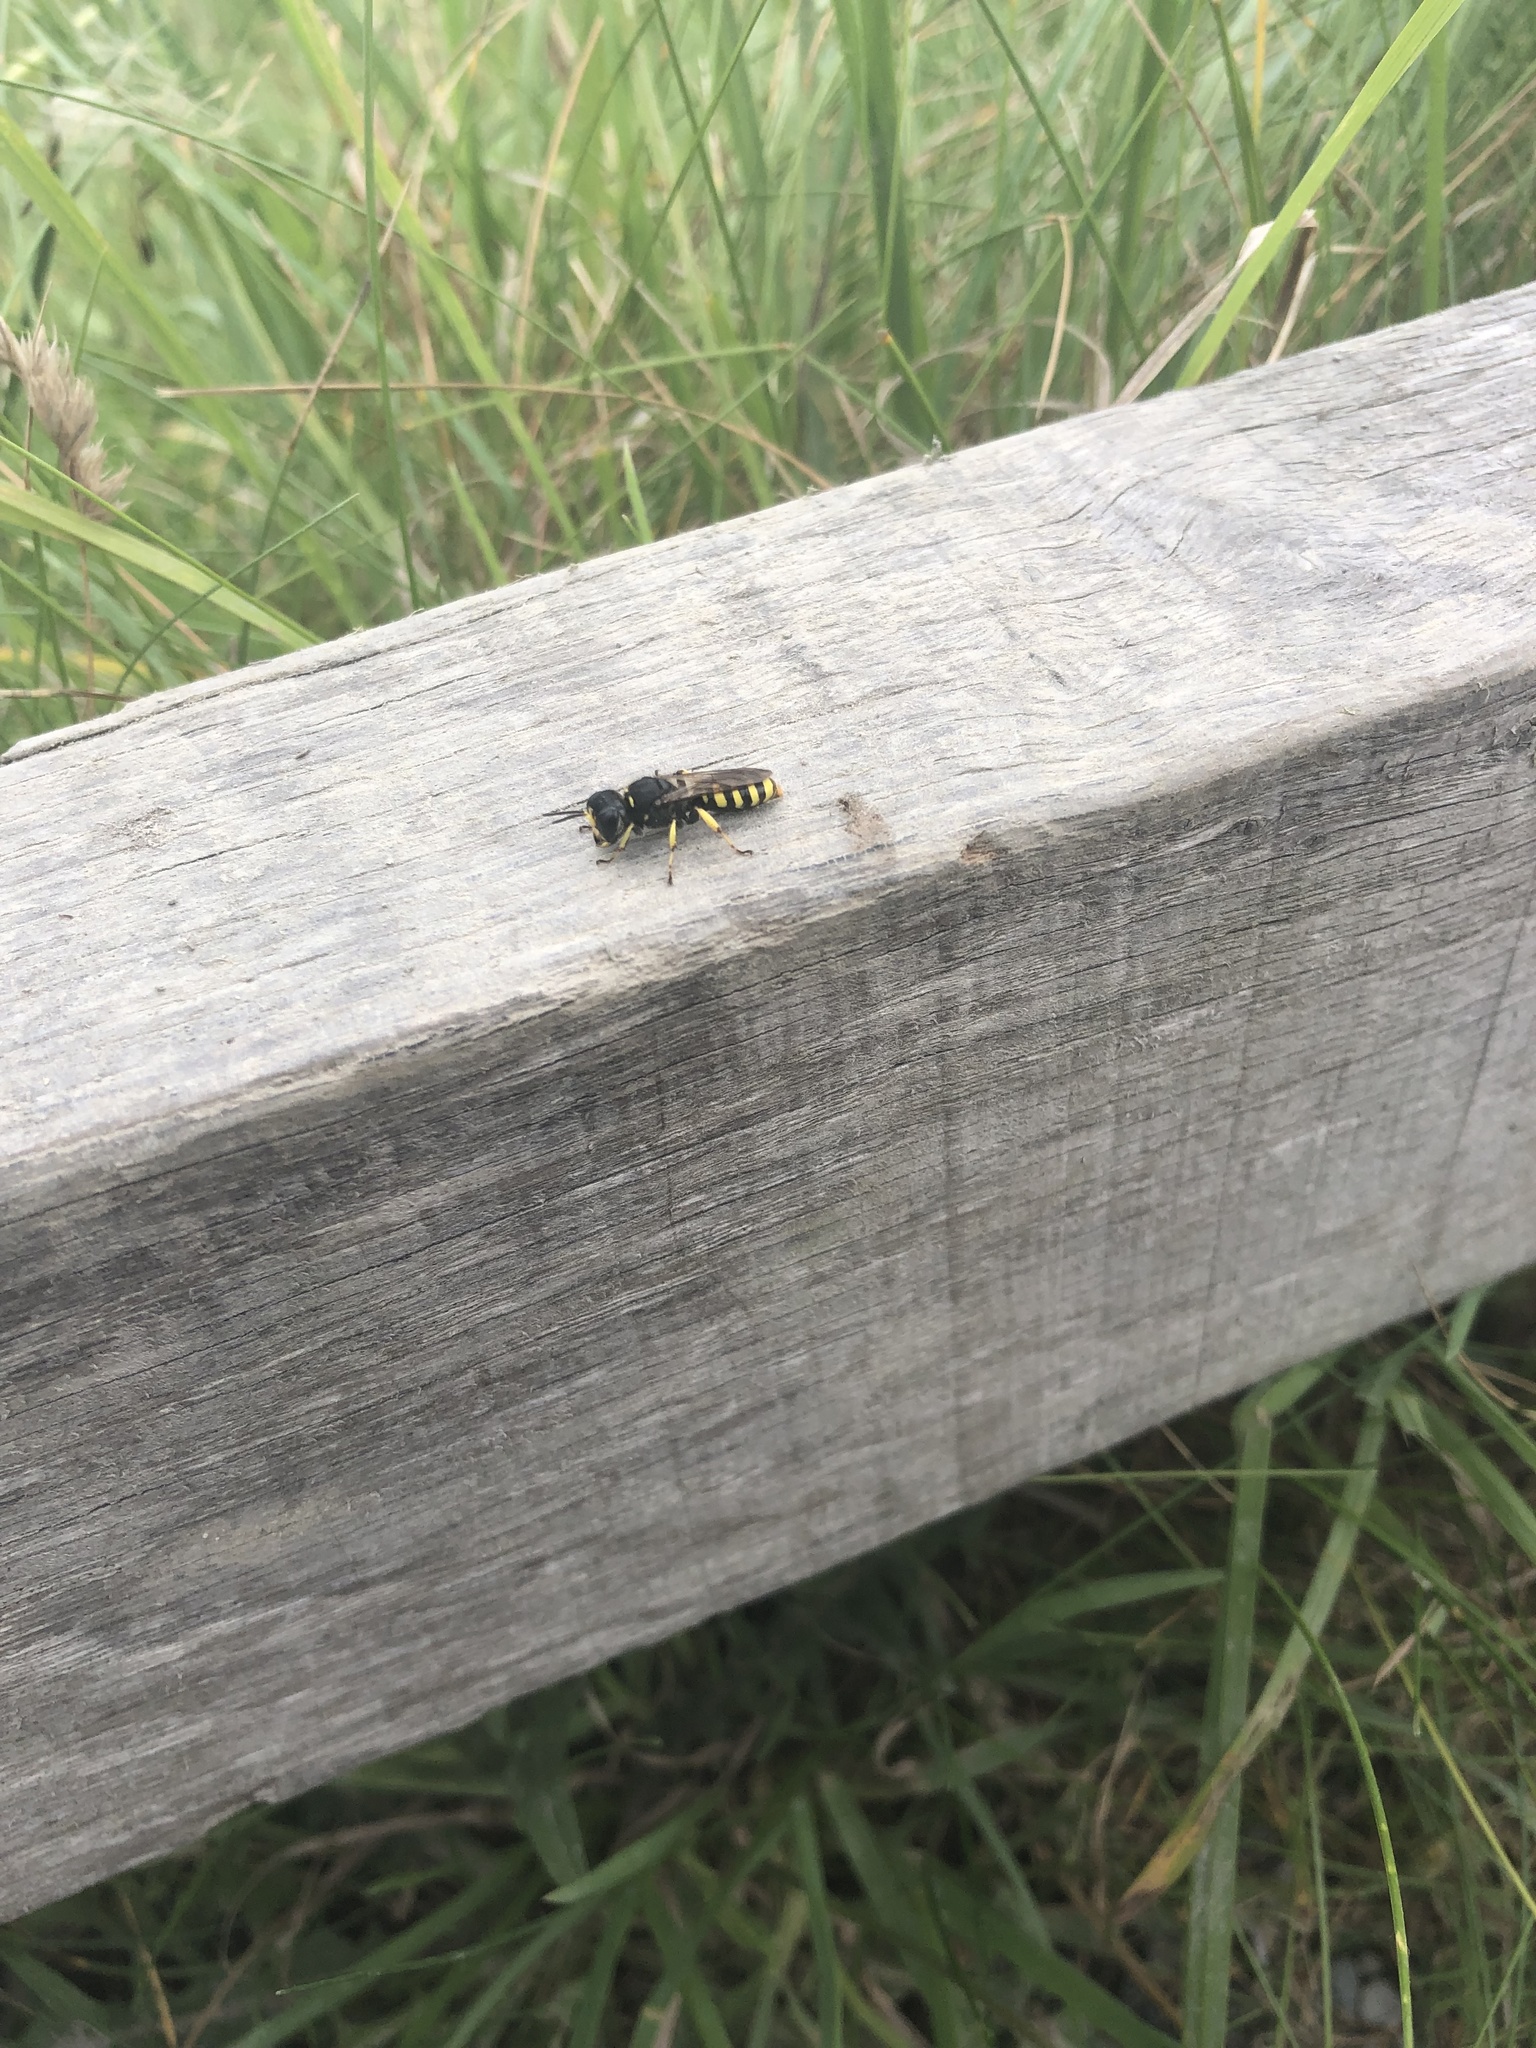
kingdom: Animalia
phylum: Arthropoda
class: Insecta
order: Hymenoptera
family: Crabronidae
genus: Ectemnius
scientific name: Ectemnius lituratus
